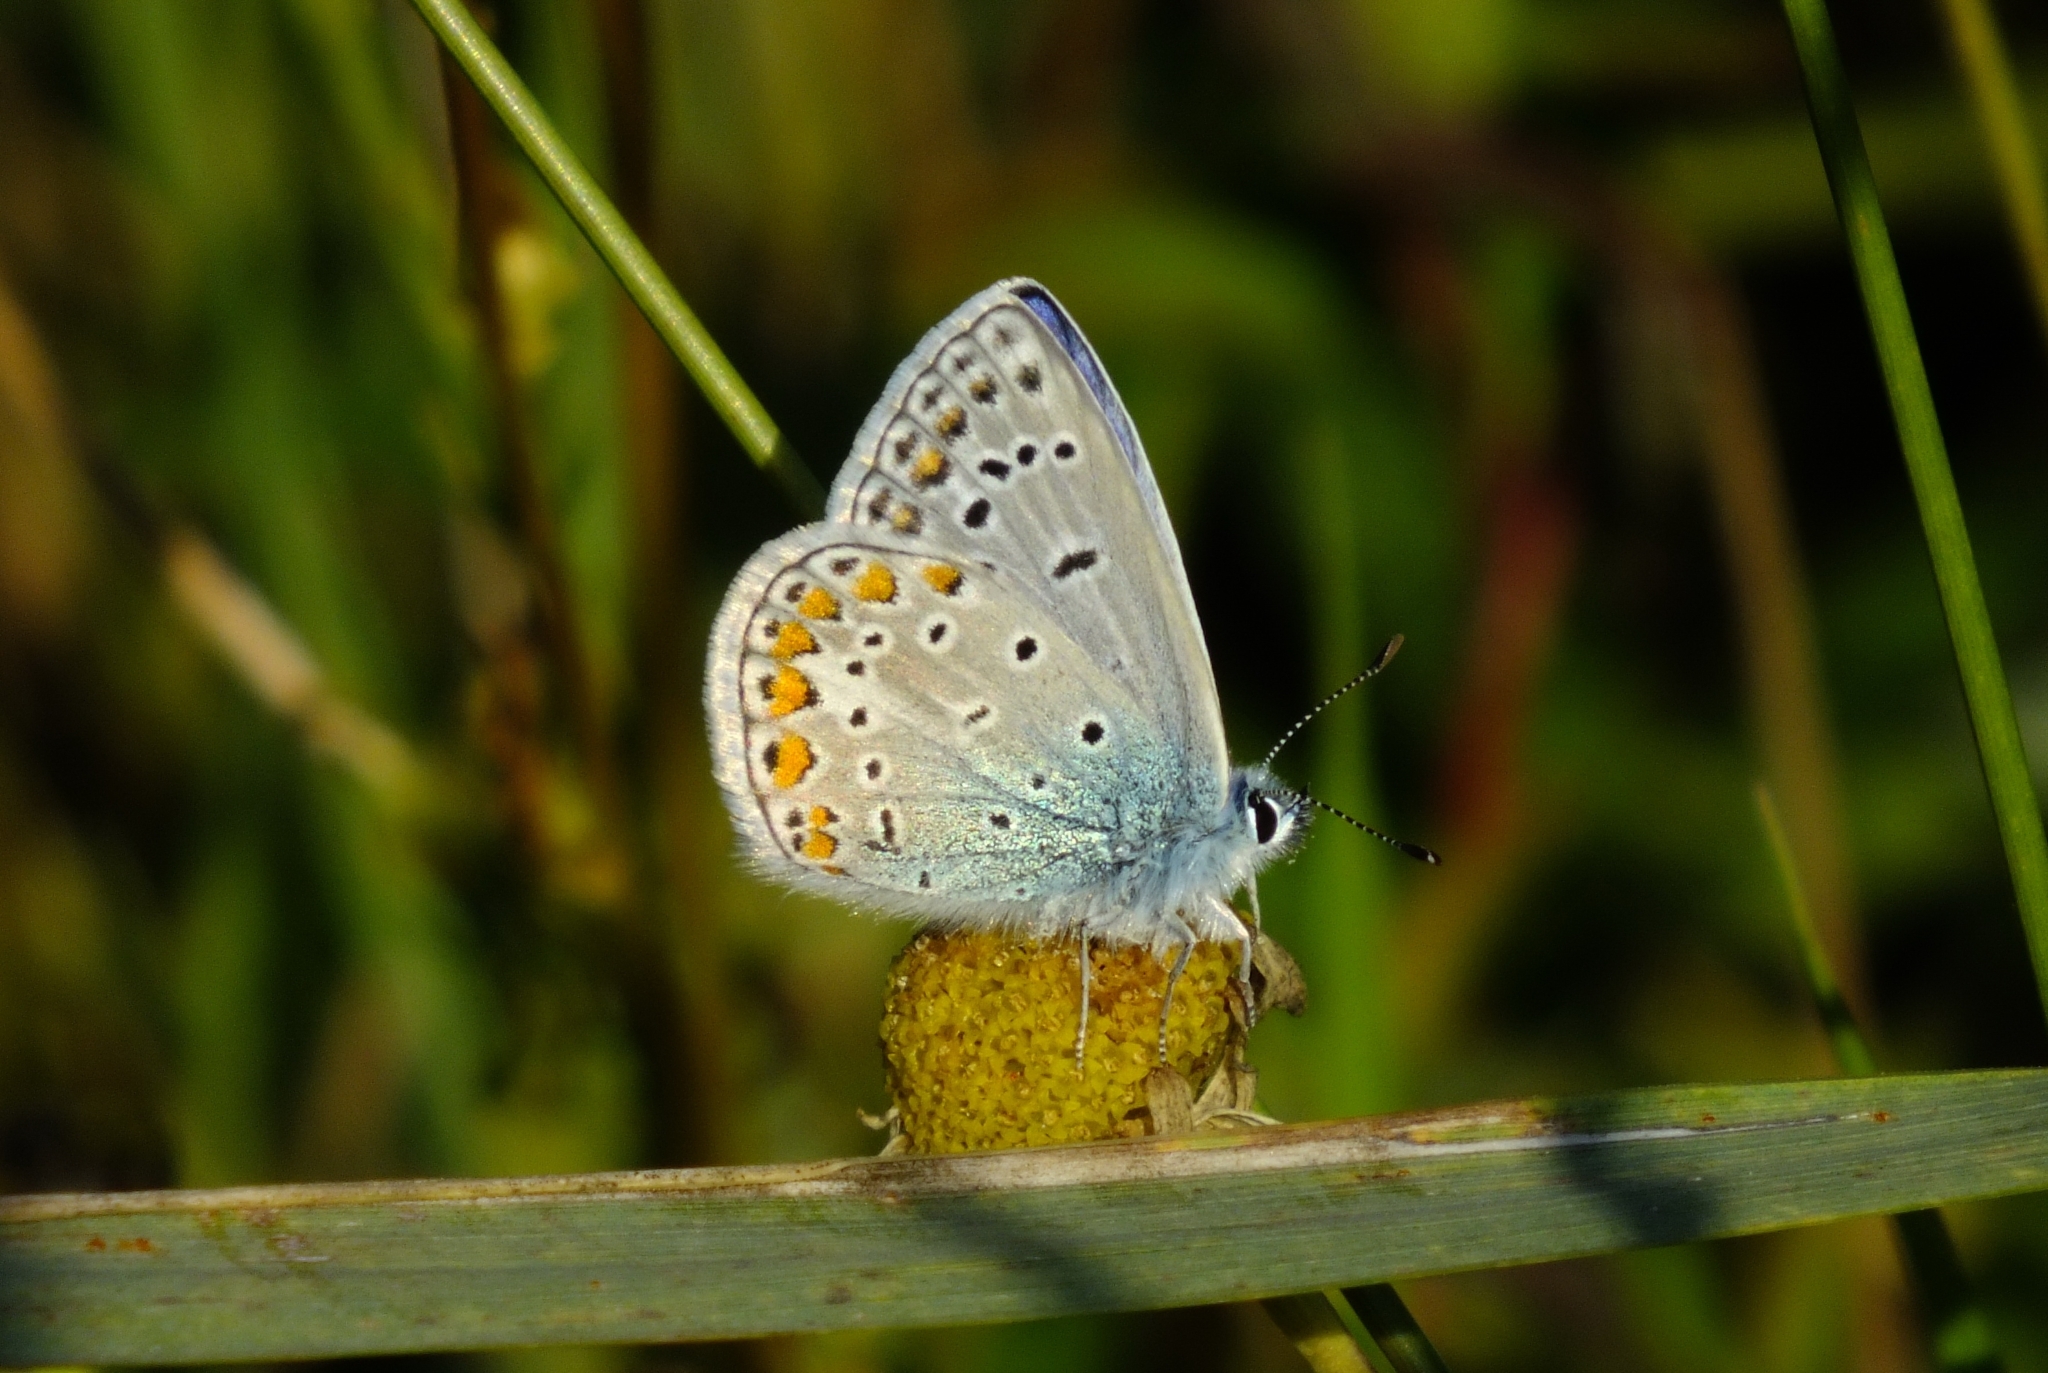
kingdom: Animalia
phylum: Arthropoda
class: Insecta
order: Lepidoptera
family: Lycaenidae
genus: Polyommatus
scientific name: Polyommatus icarus
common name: Common blue
